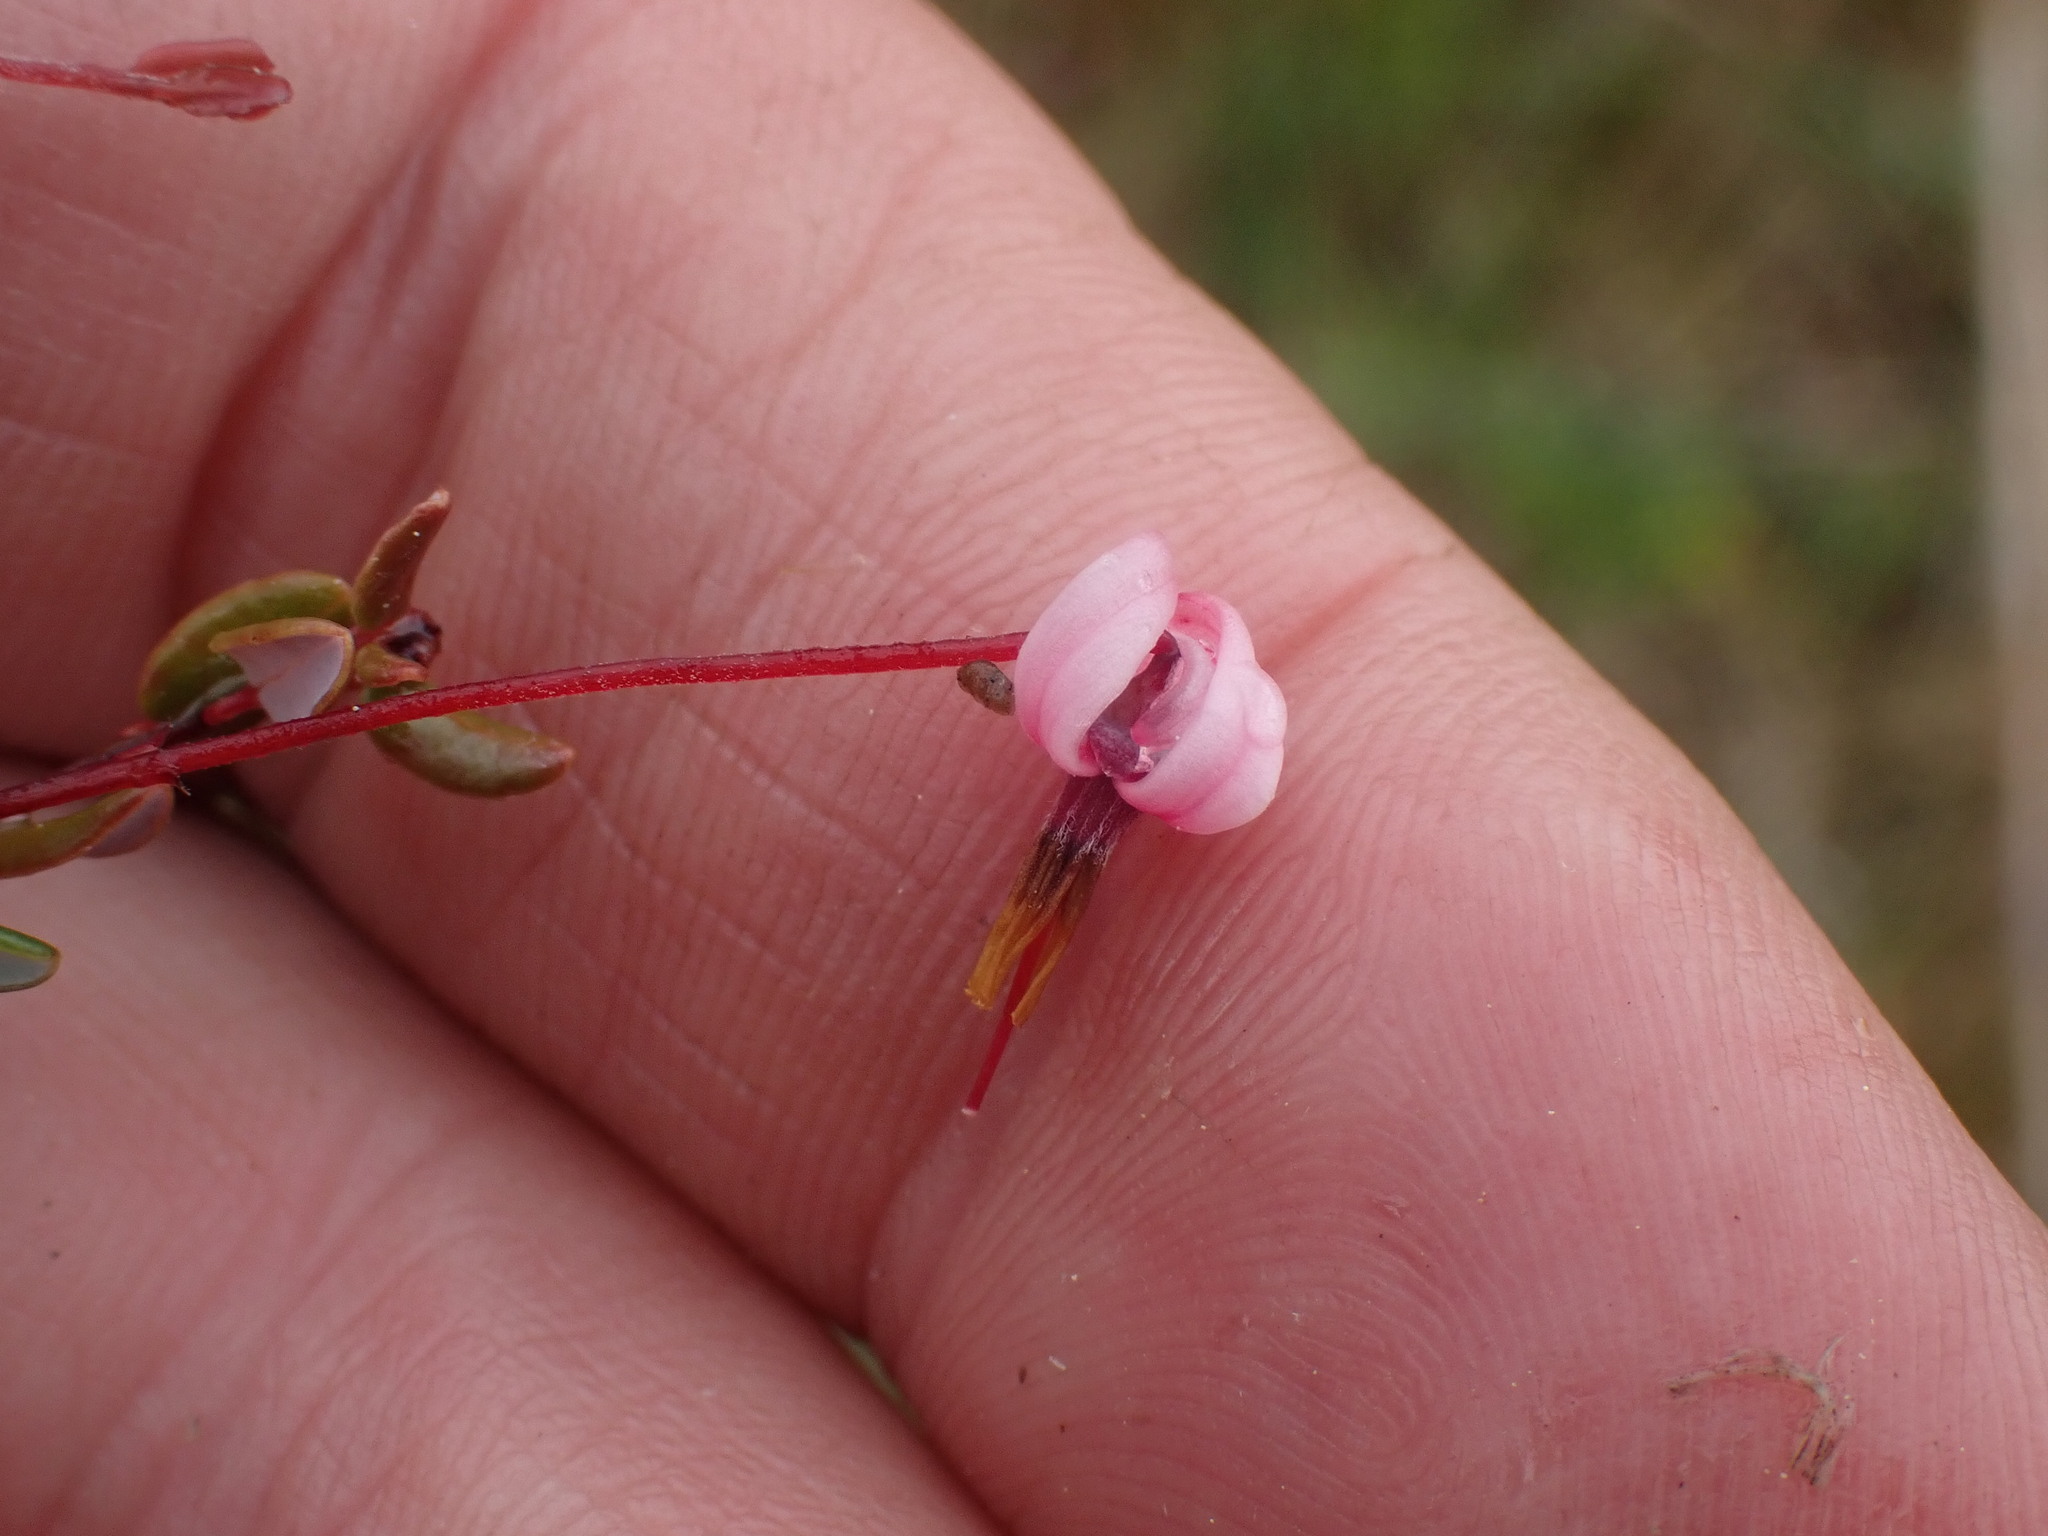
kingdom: Plantae
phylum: Tracheophyta
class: Magnoliopsida
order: Ericales
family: Ericaceae
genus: Vaccinium
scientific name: Vaccinium oxycoccos
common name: Cranberry
